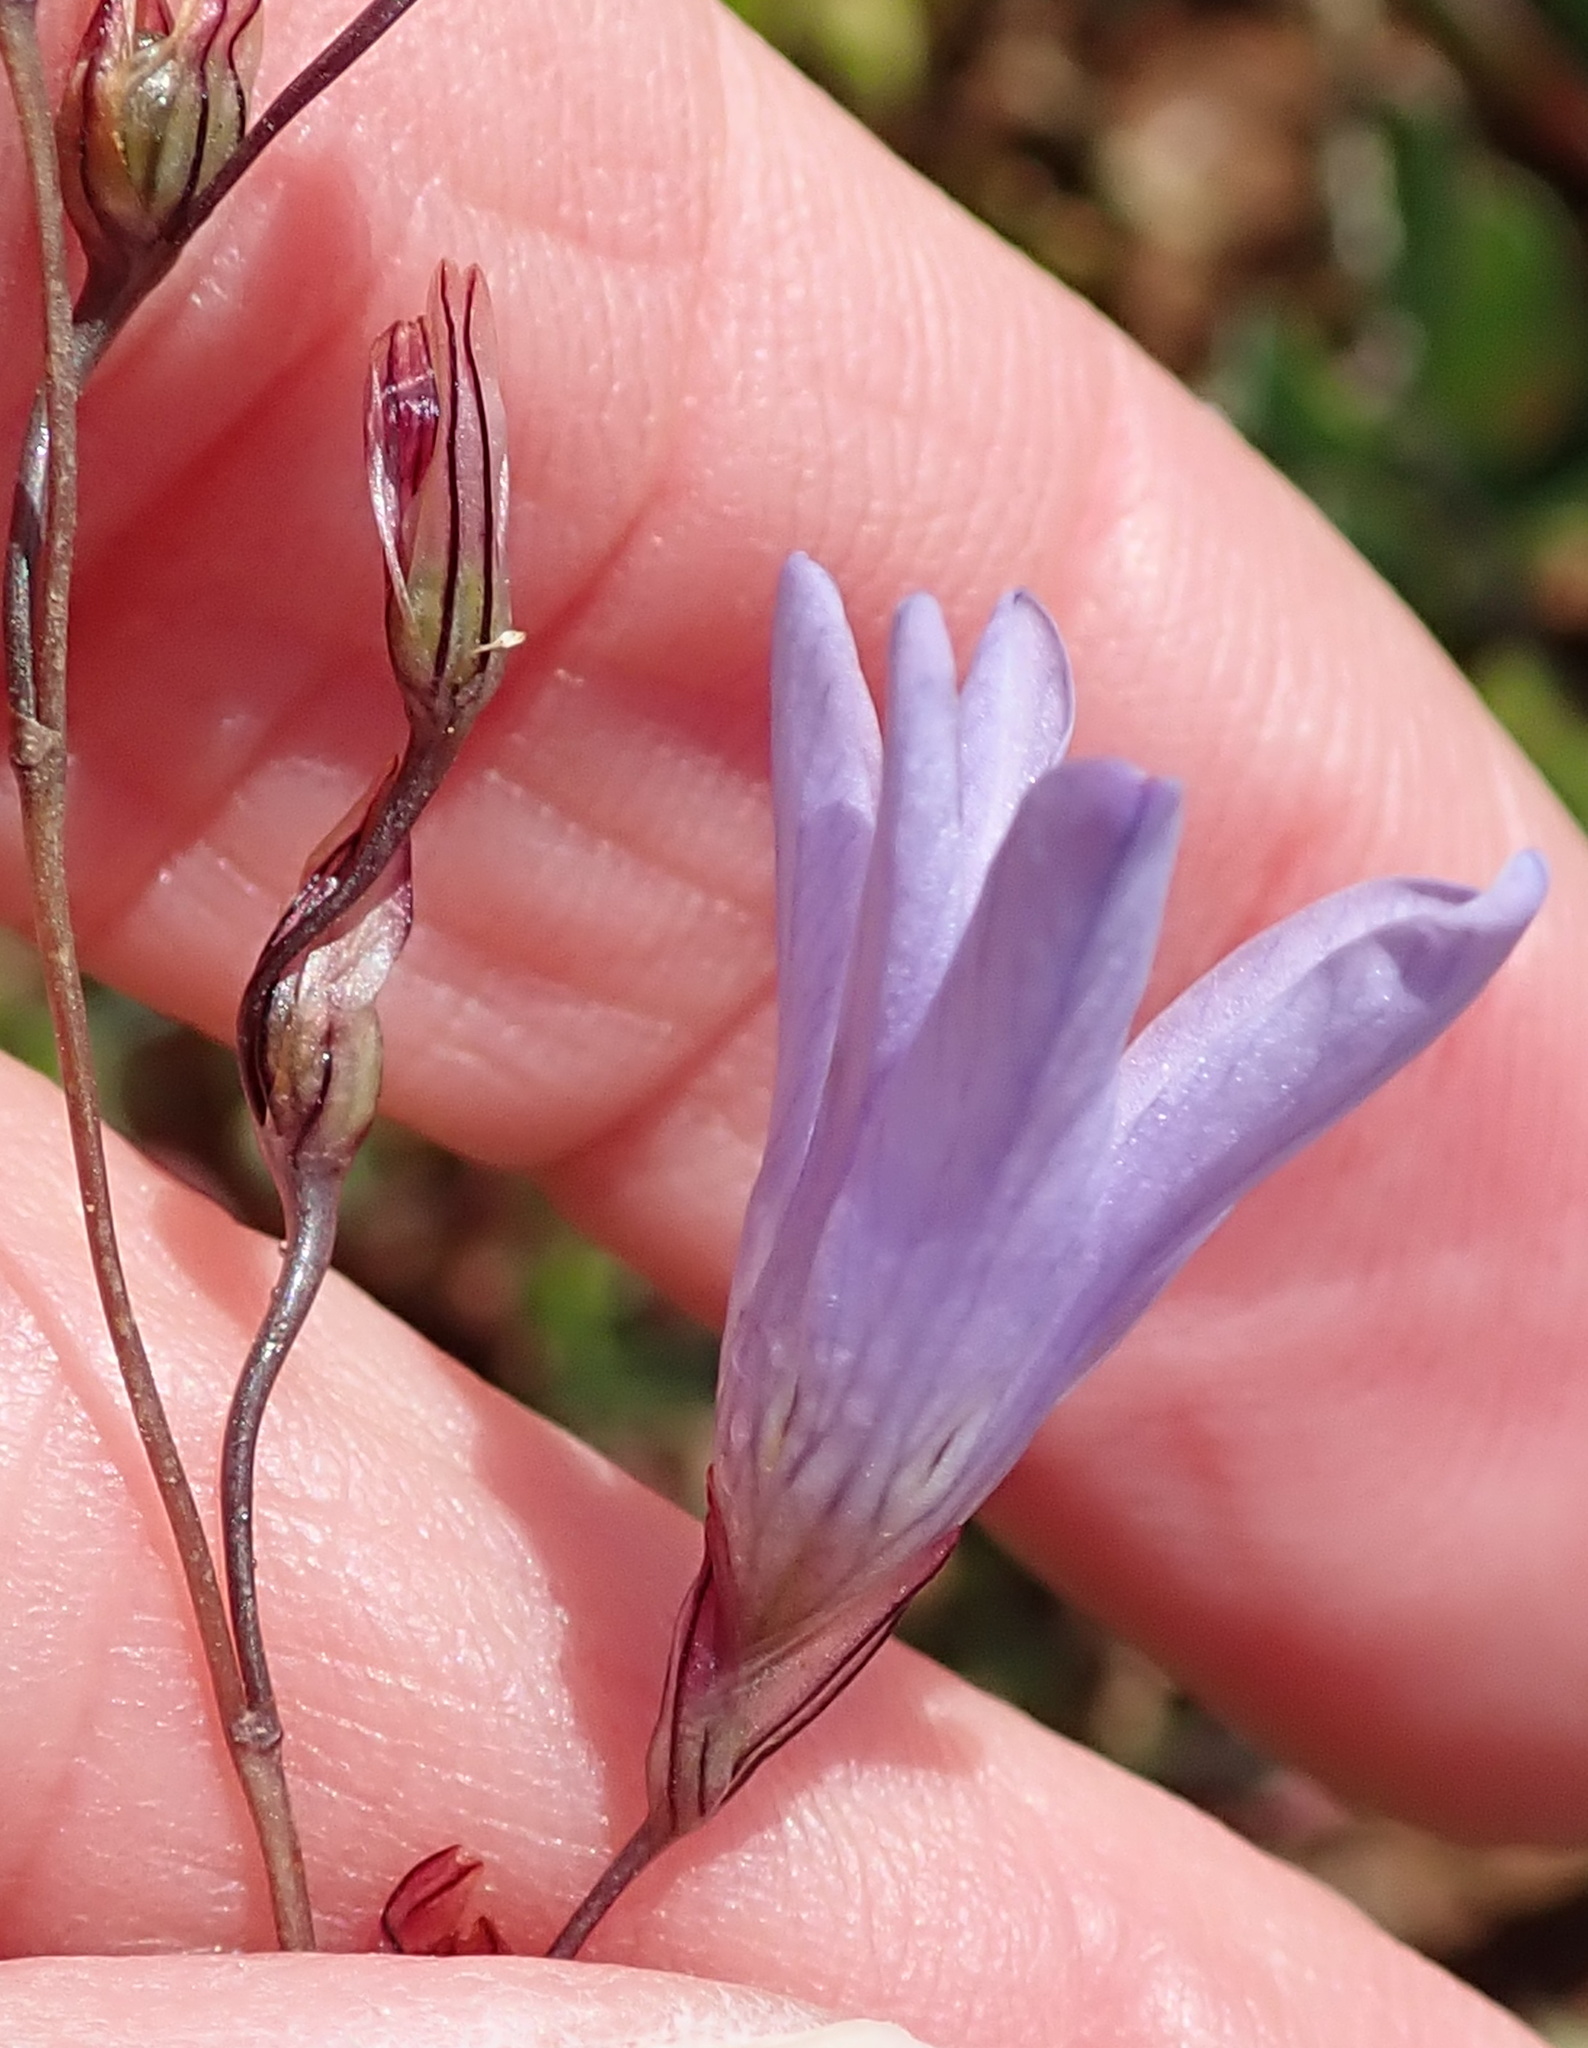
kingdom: Plantae
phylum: Tracheophyta
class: Liliopsida
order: Asparagales
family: Iridaceae
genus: Ixia
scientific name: Ixia rapunculoides
